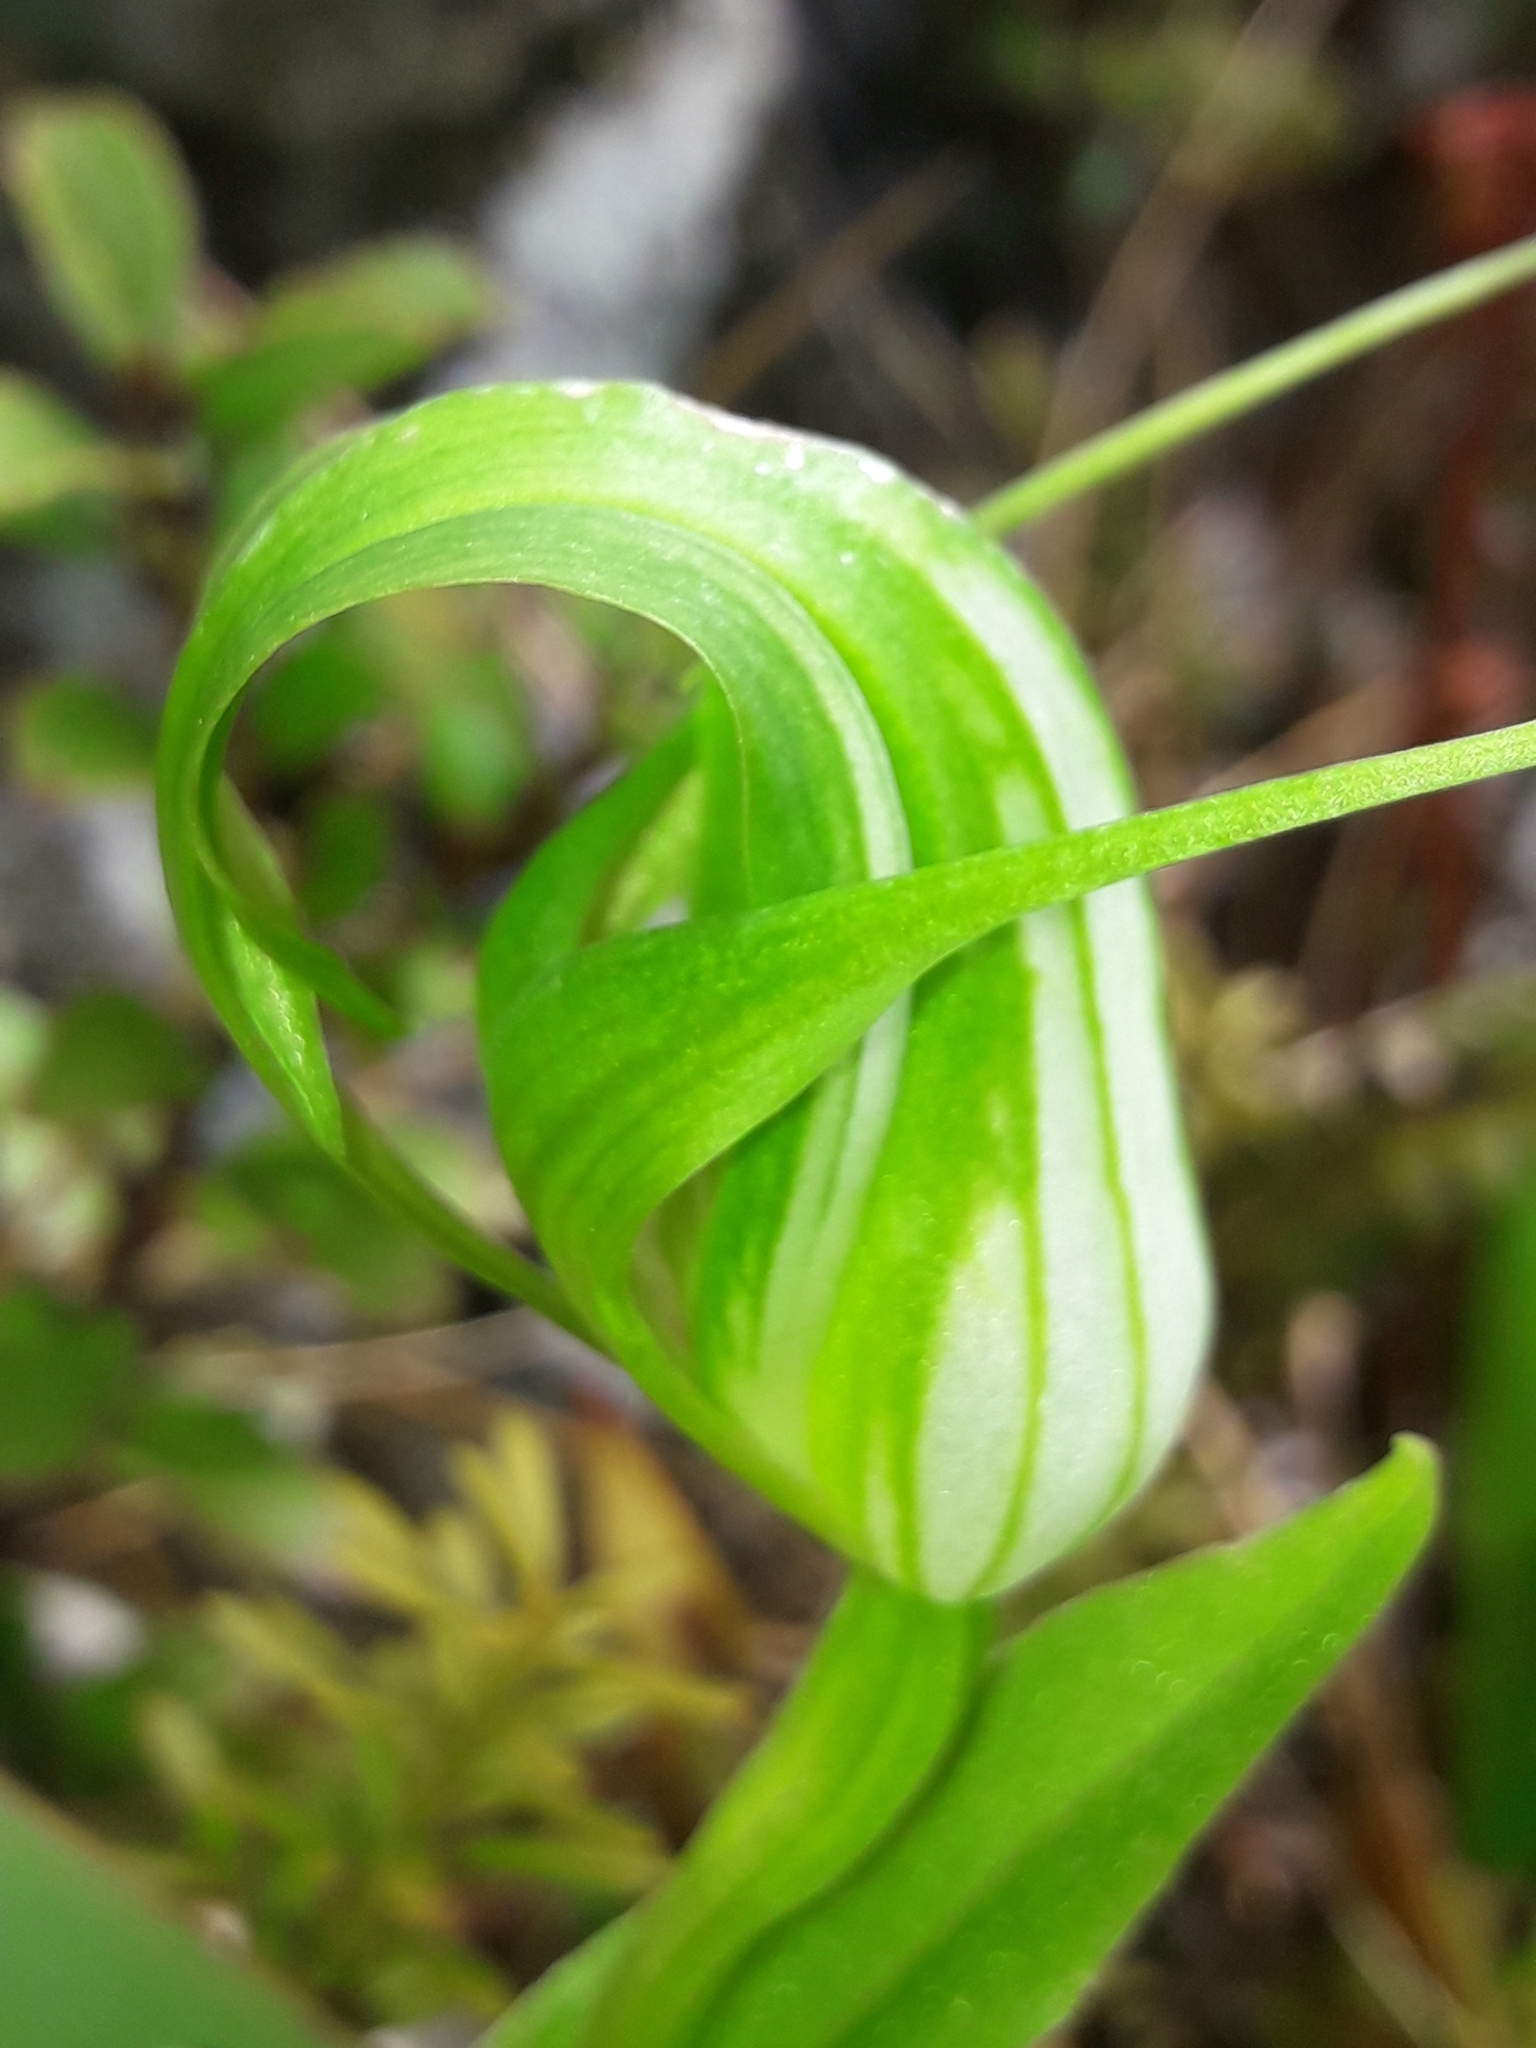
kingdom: Plantae
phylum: Tracheophyta
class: Liliopsida
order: Asparagales
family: Orchidaceae
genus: Pterostylis
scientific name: Pterostylis oliveri
